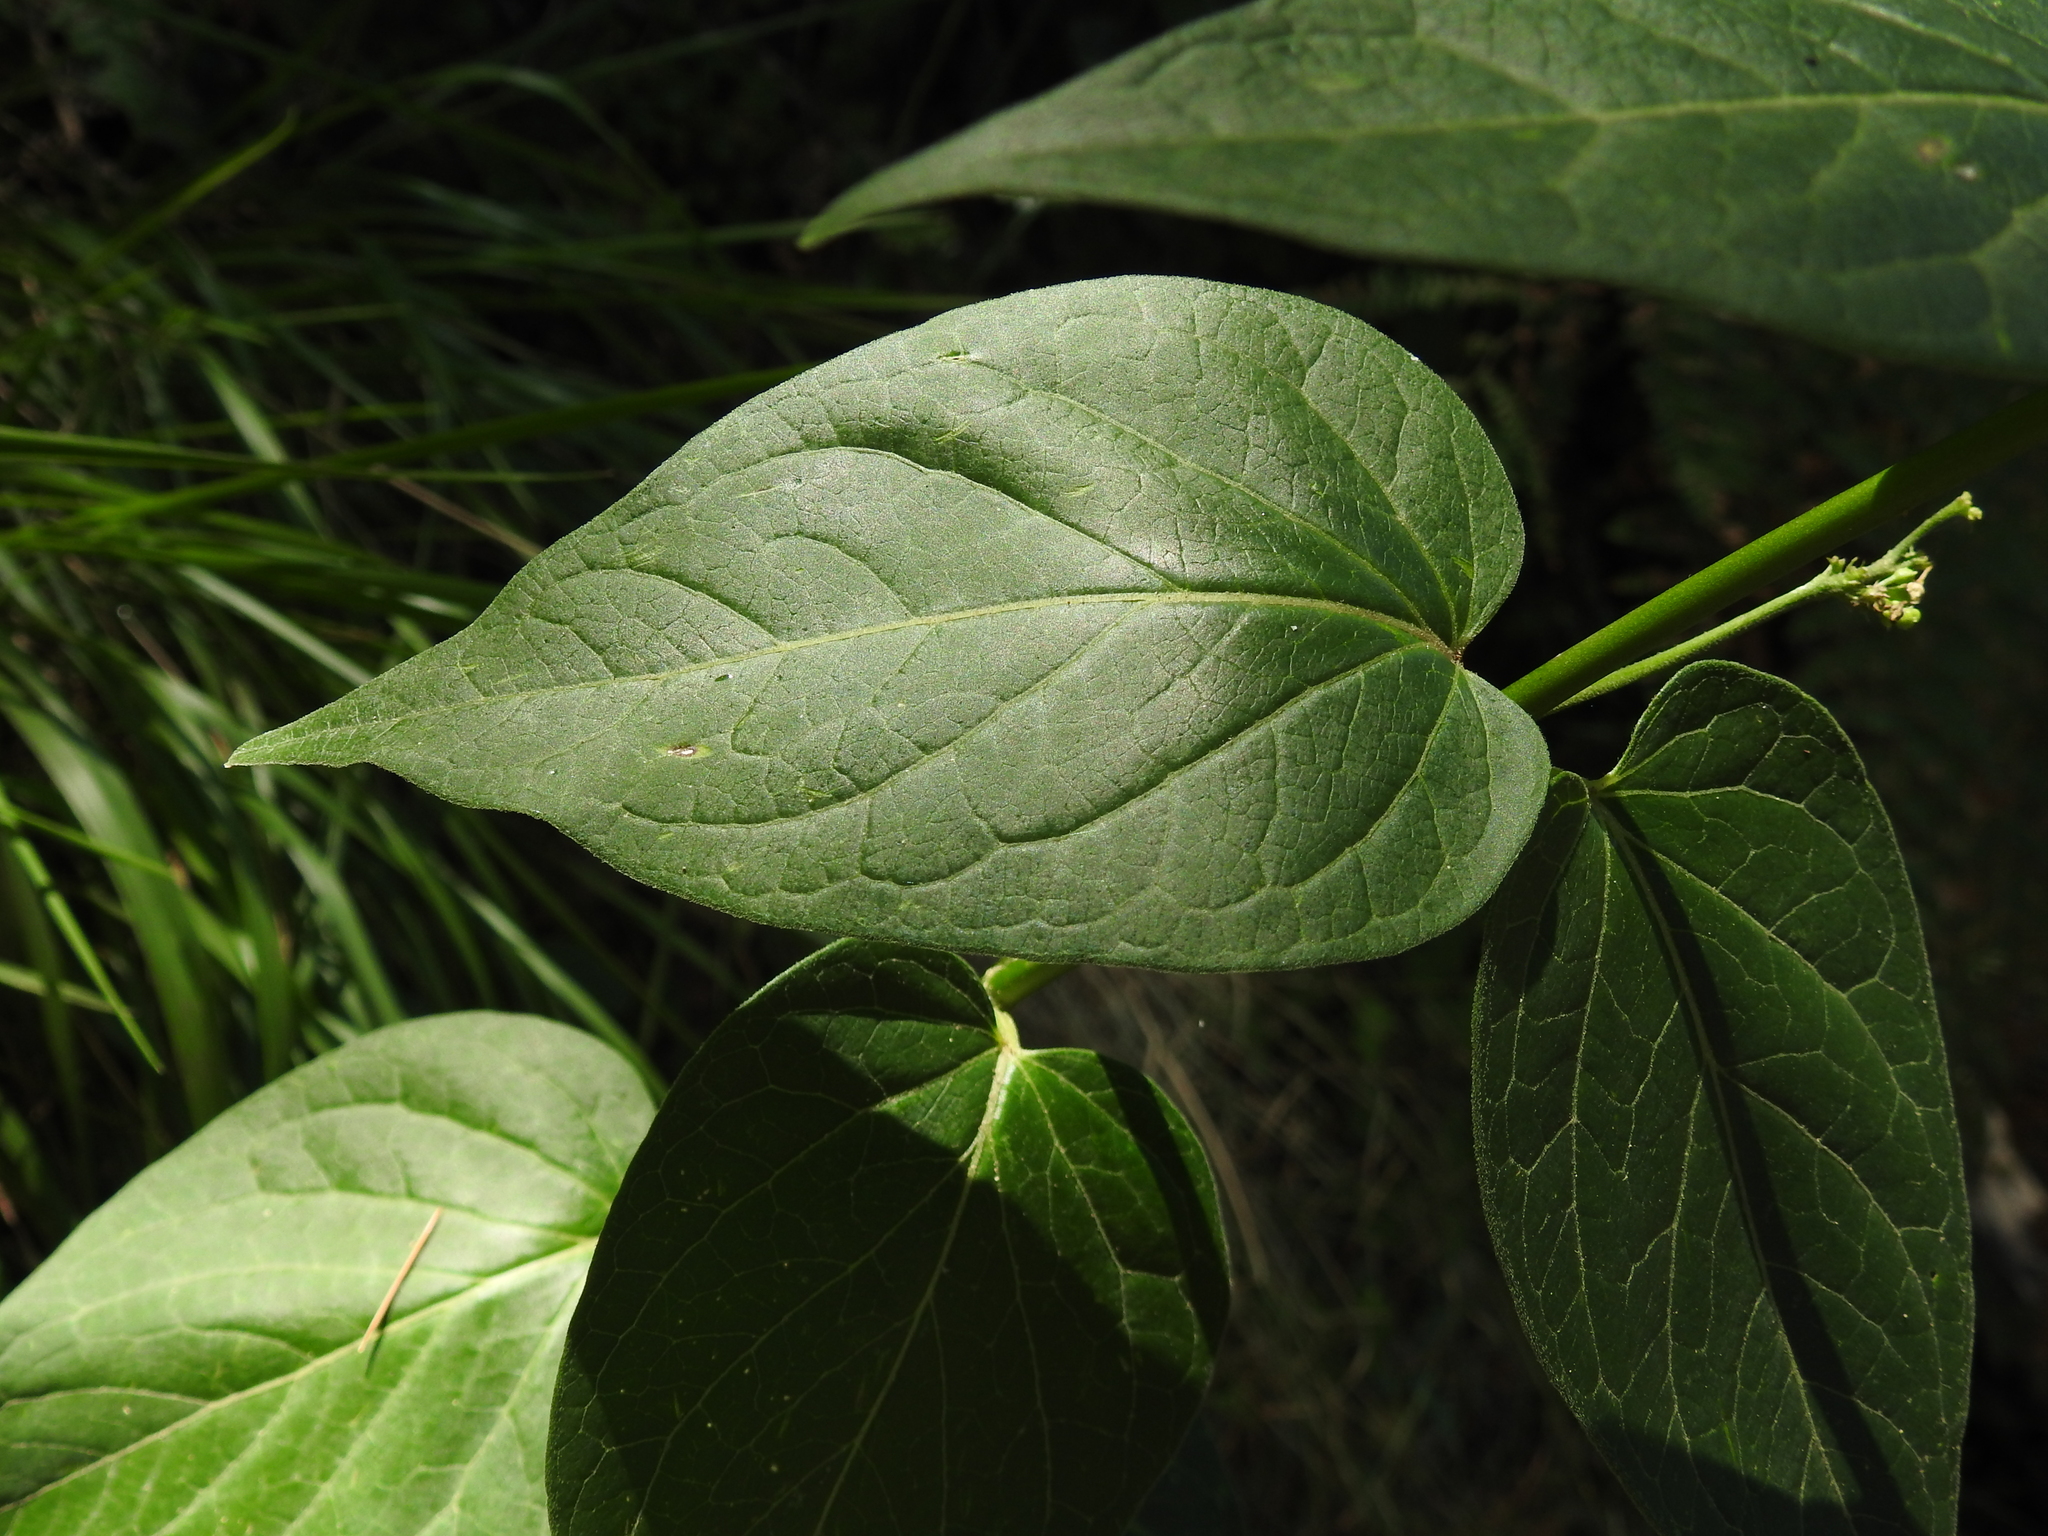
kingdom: Plantae
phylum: Tracheophyta
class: Magnoliopsida
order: Gentianales
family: Apocynaceae
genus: Vincetoxicum
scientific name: Vincetoxicum hirundinaria
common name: White swallowwort
